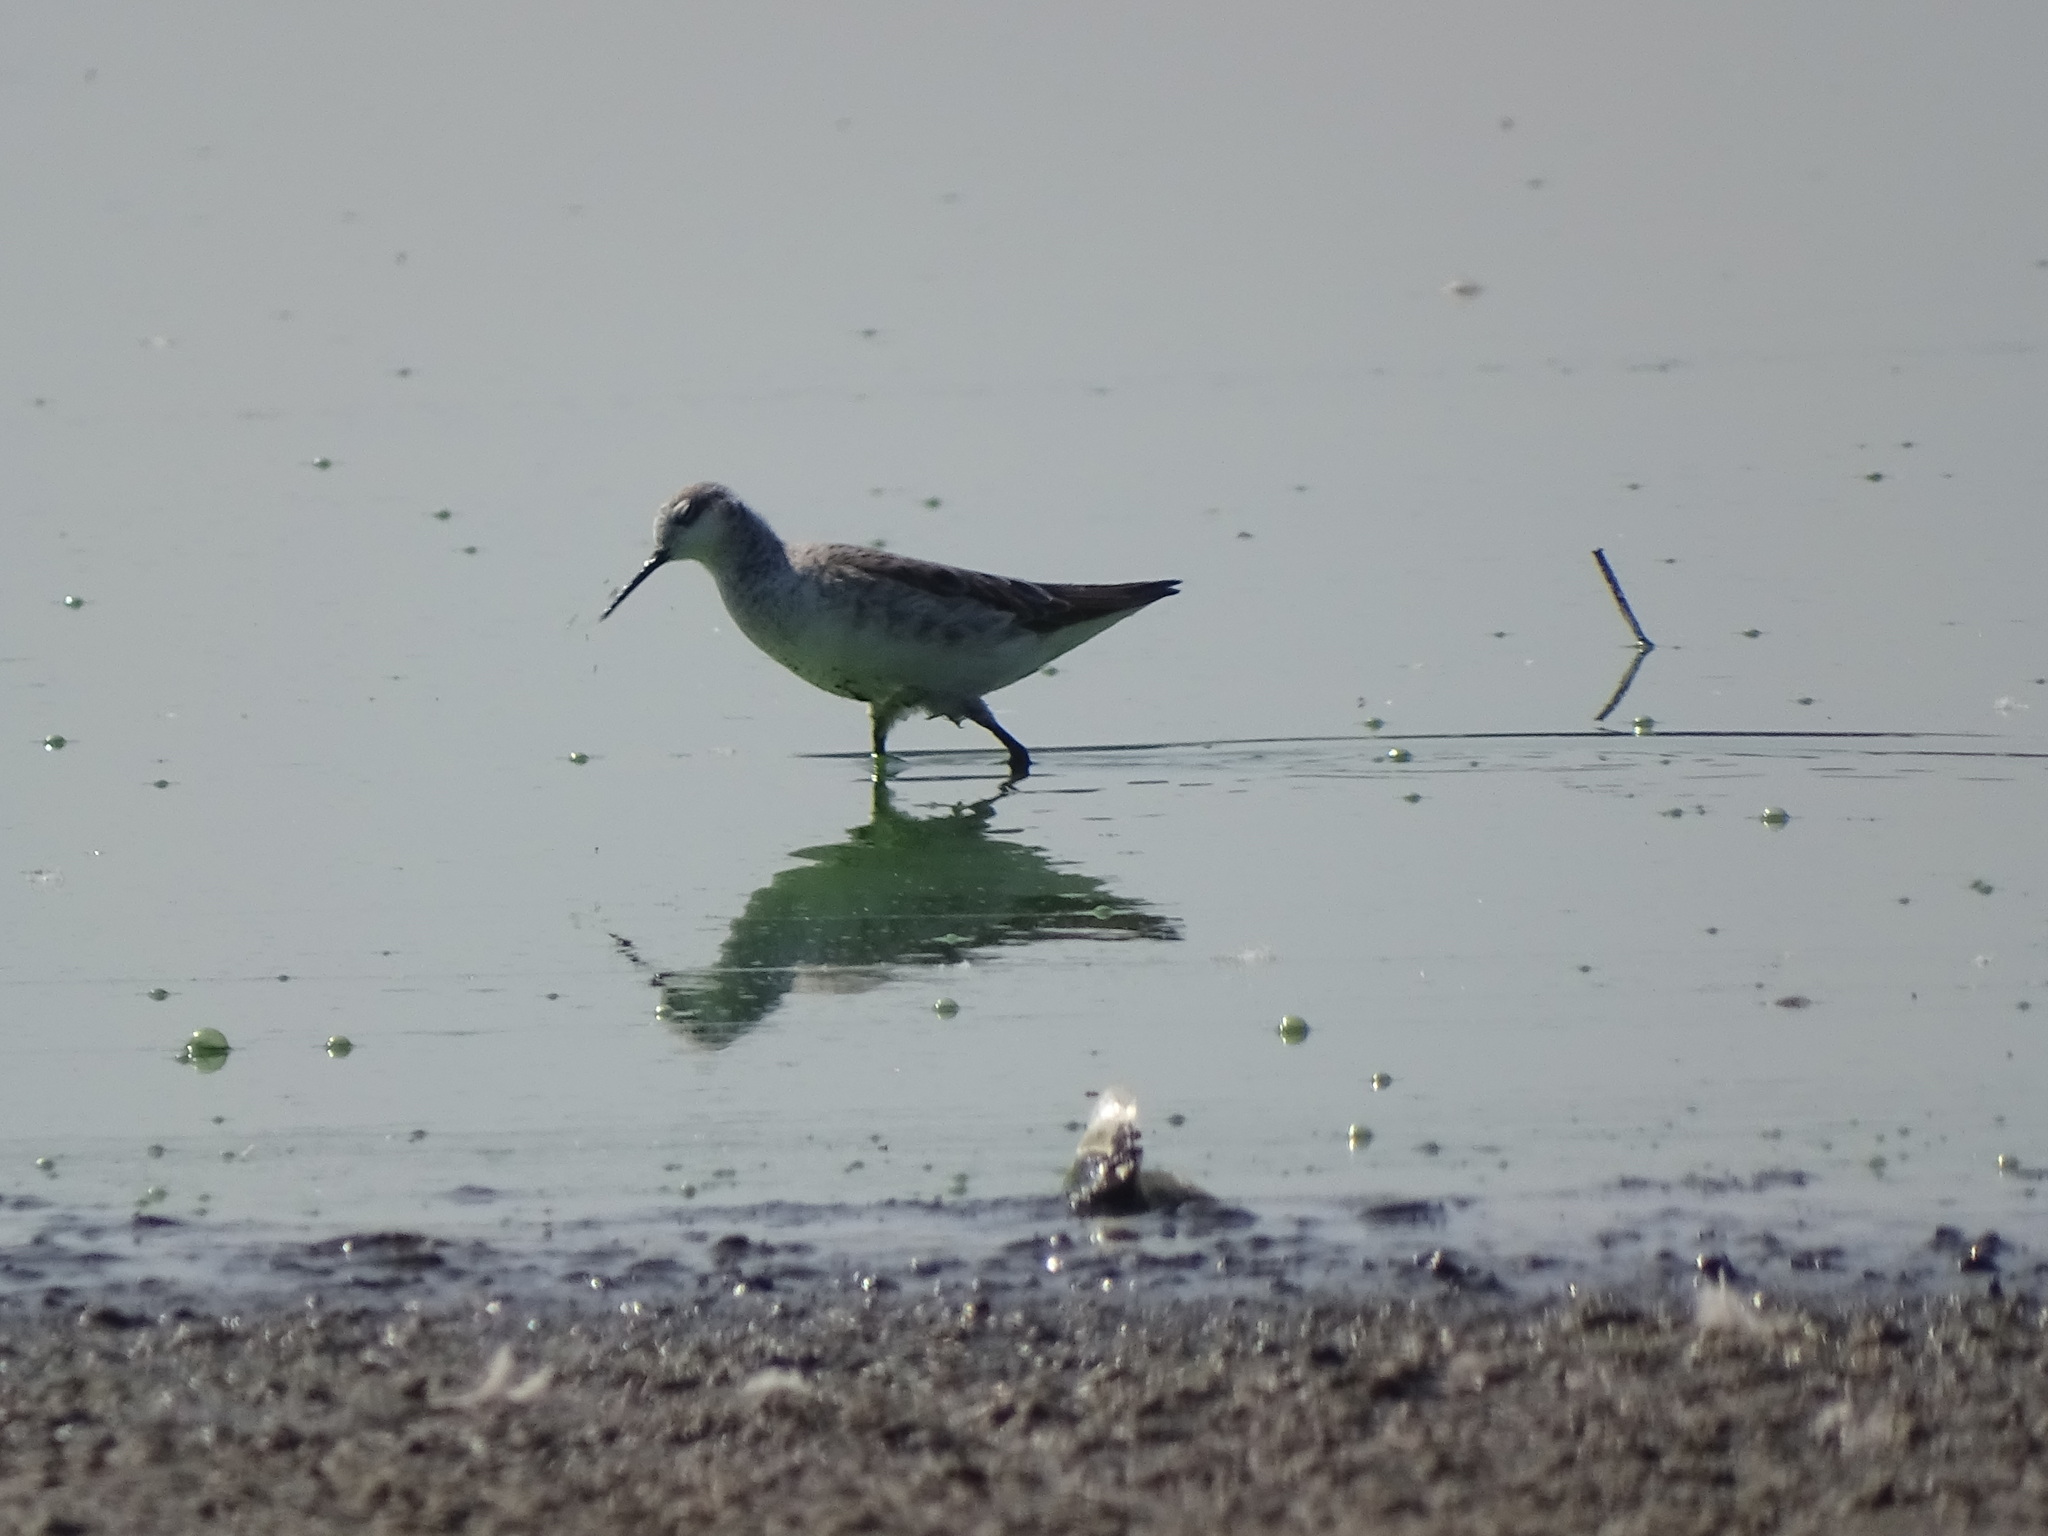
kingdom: Animalia
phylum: Chordata
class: Aves
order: Charadriiformes
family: Scolopacidae
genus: Phalaropus
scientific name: Phalaropus tricolor
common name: Wilson's phalarope
